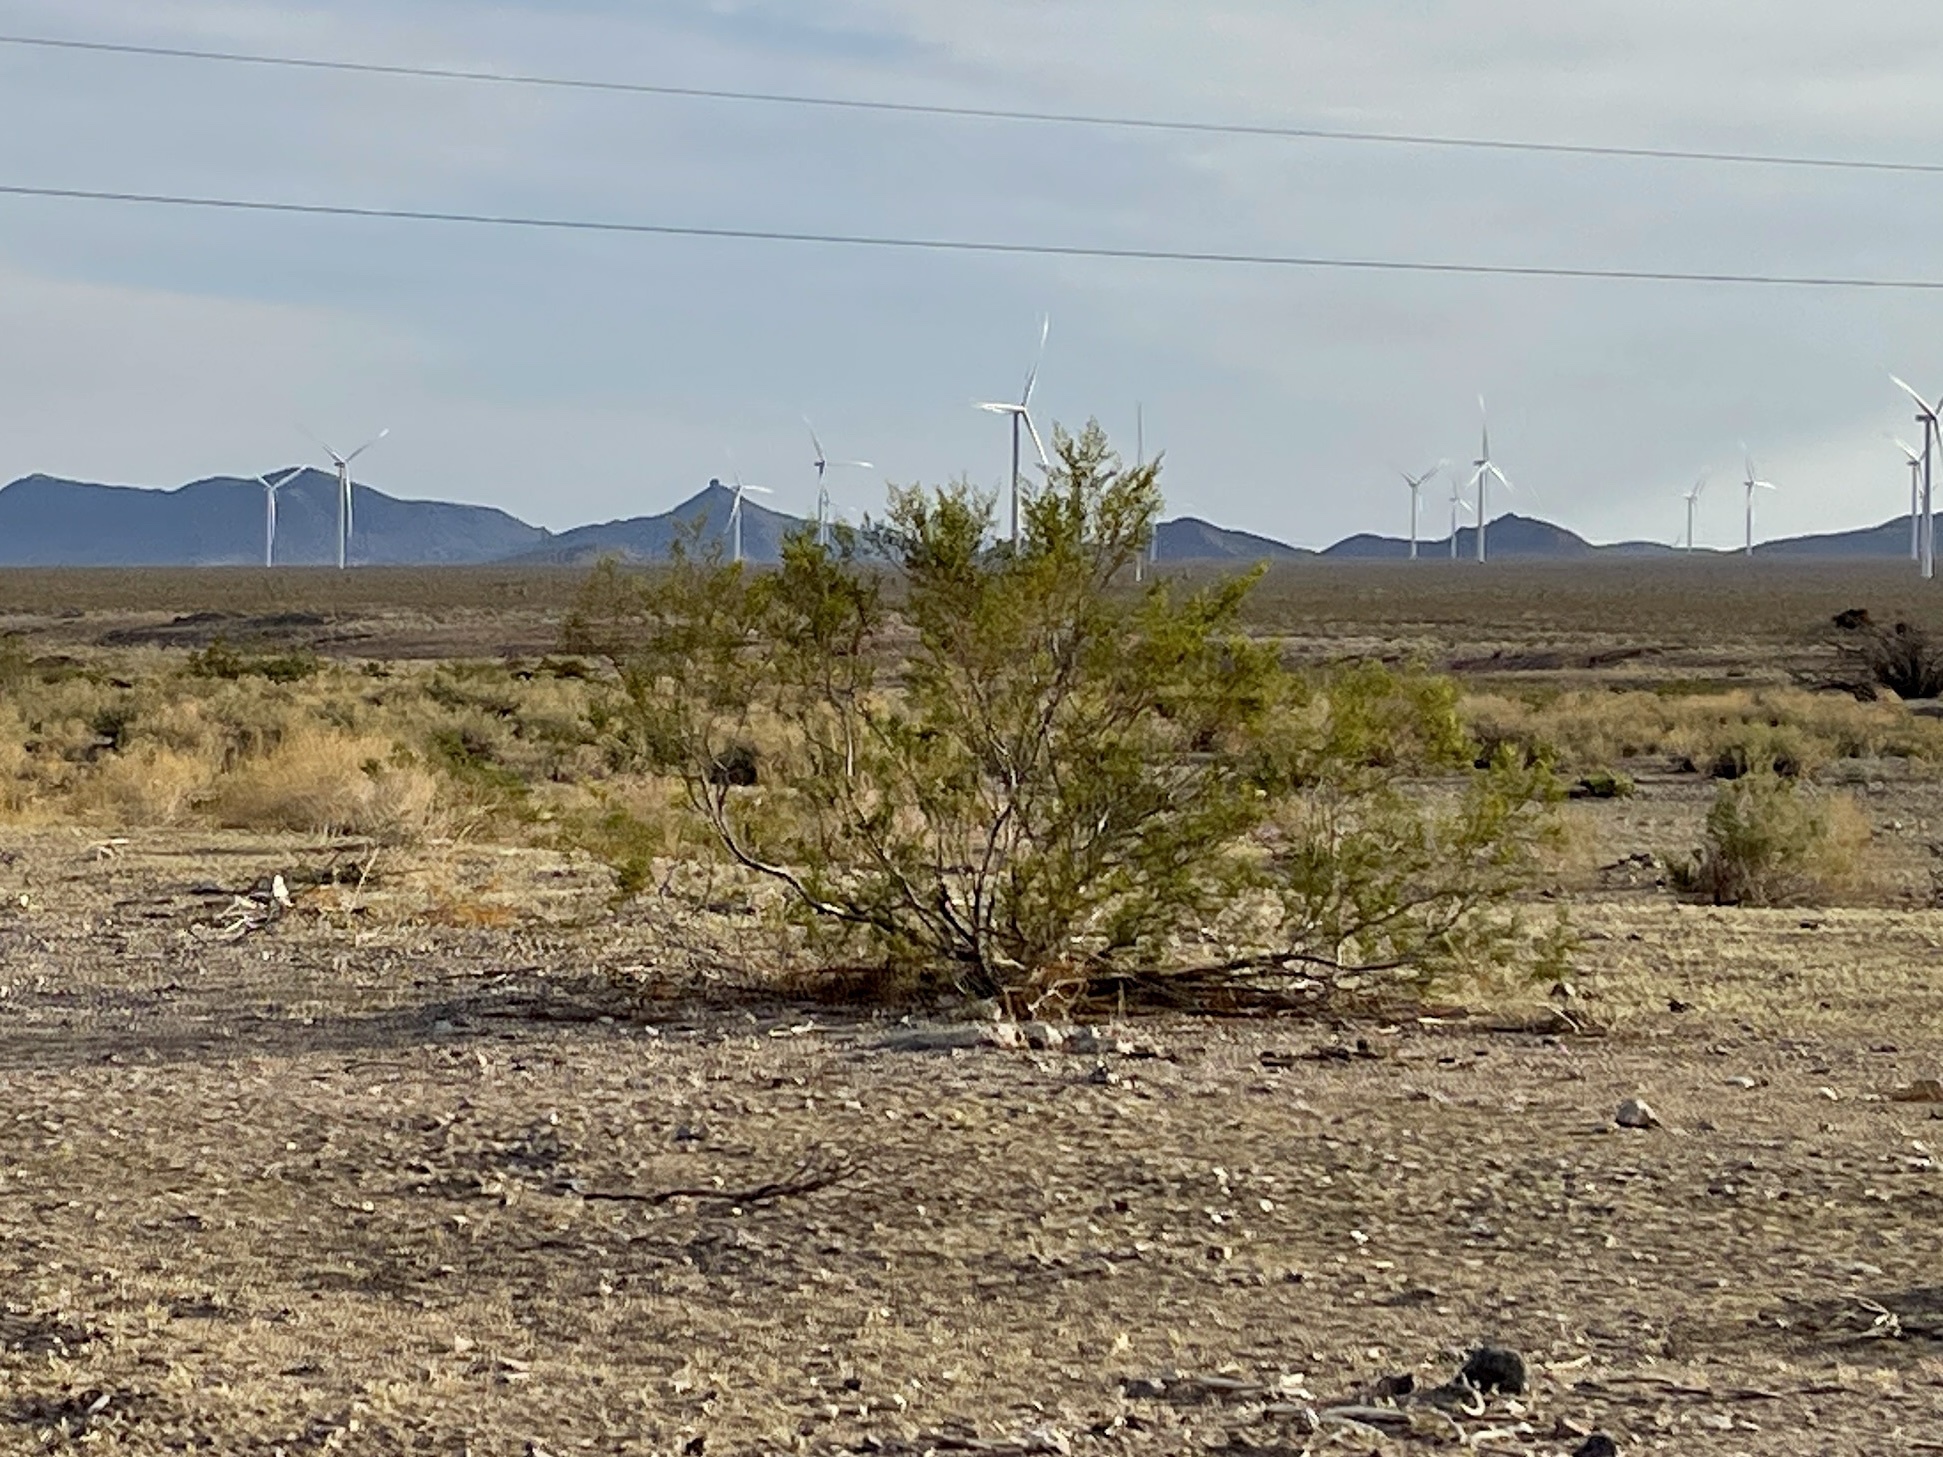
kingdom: Plantae
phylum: Tracheophyta
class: Magnoliopsida
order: Zygophyllales
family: Zygophyllaceae
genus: Larrea
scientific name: Larrea tridentata
